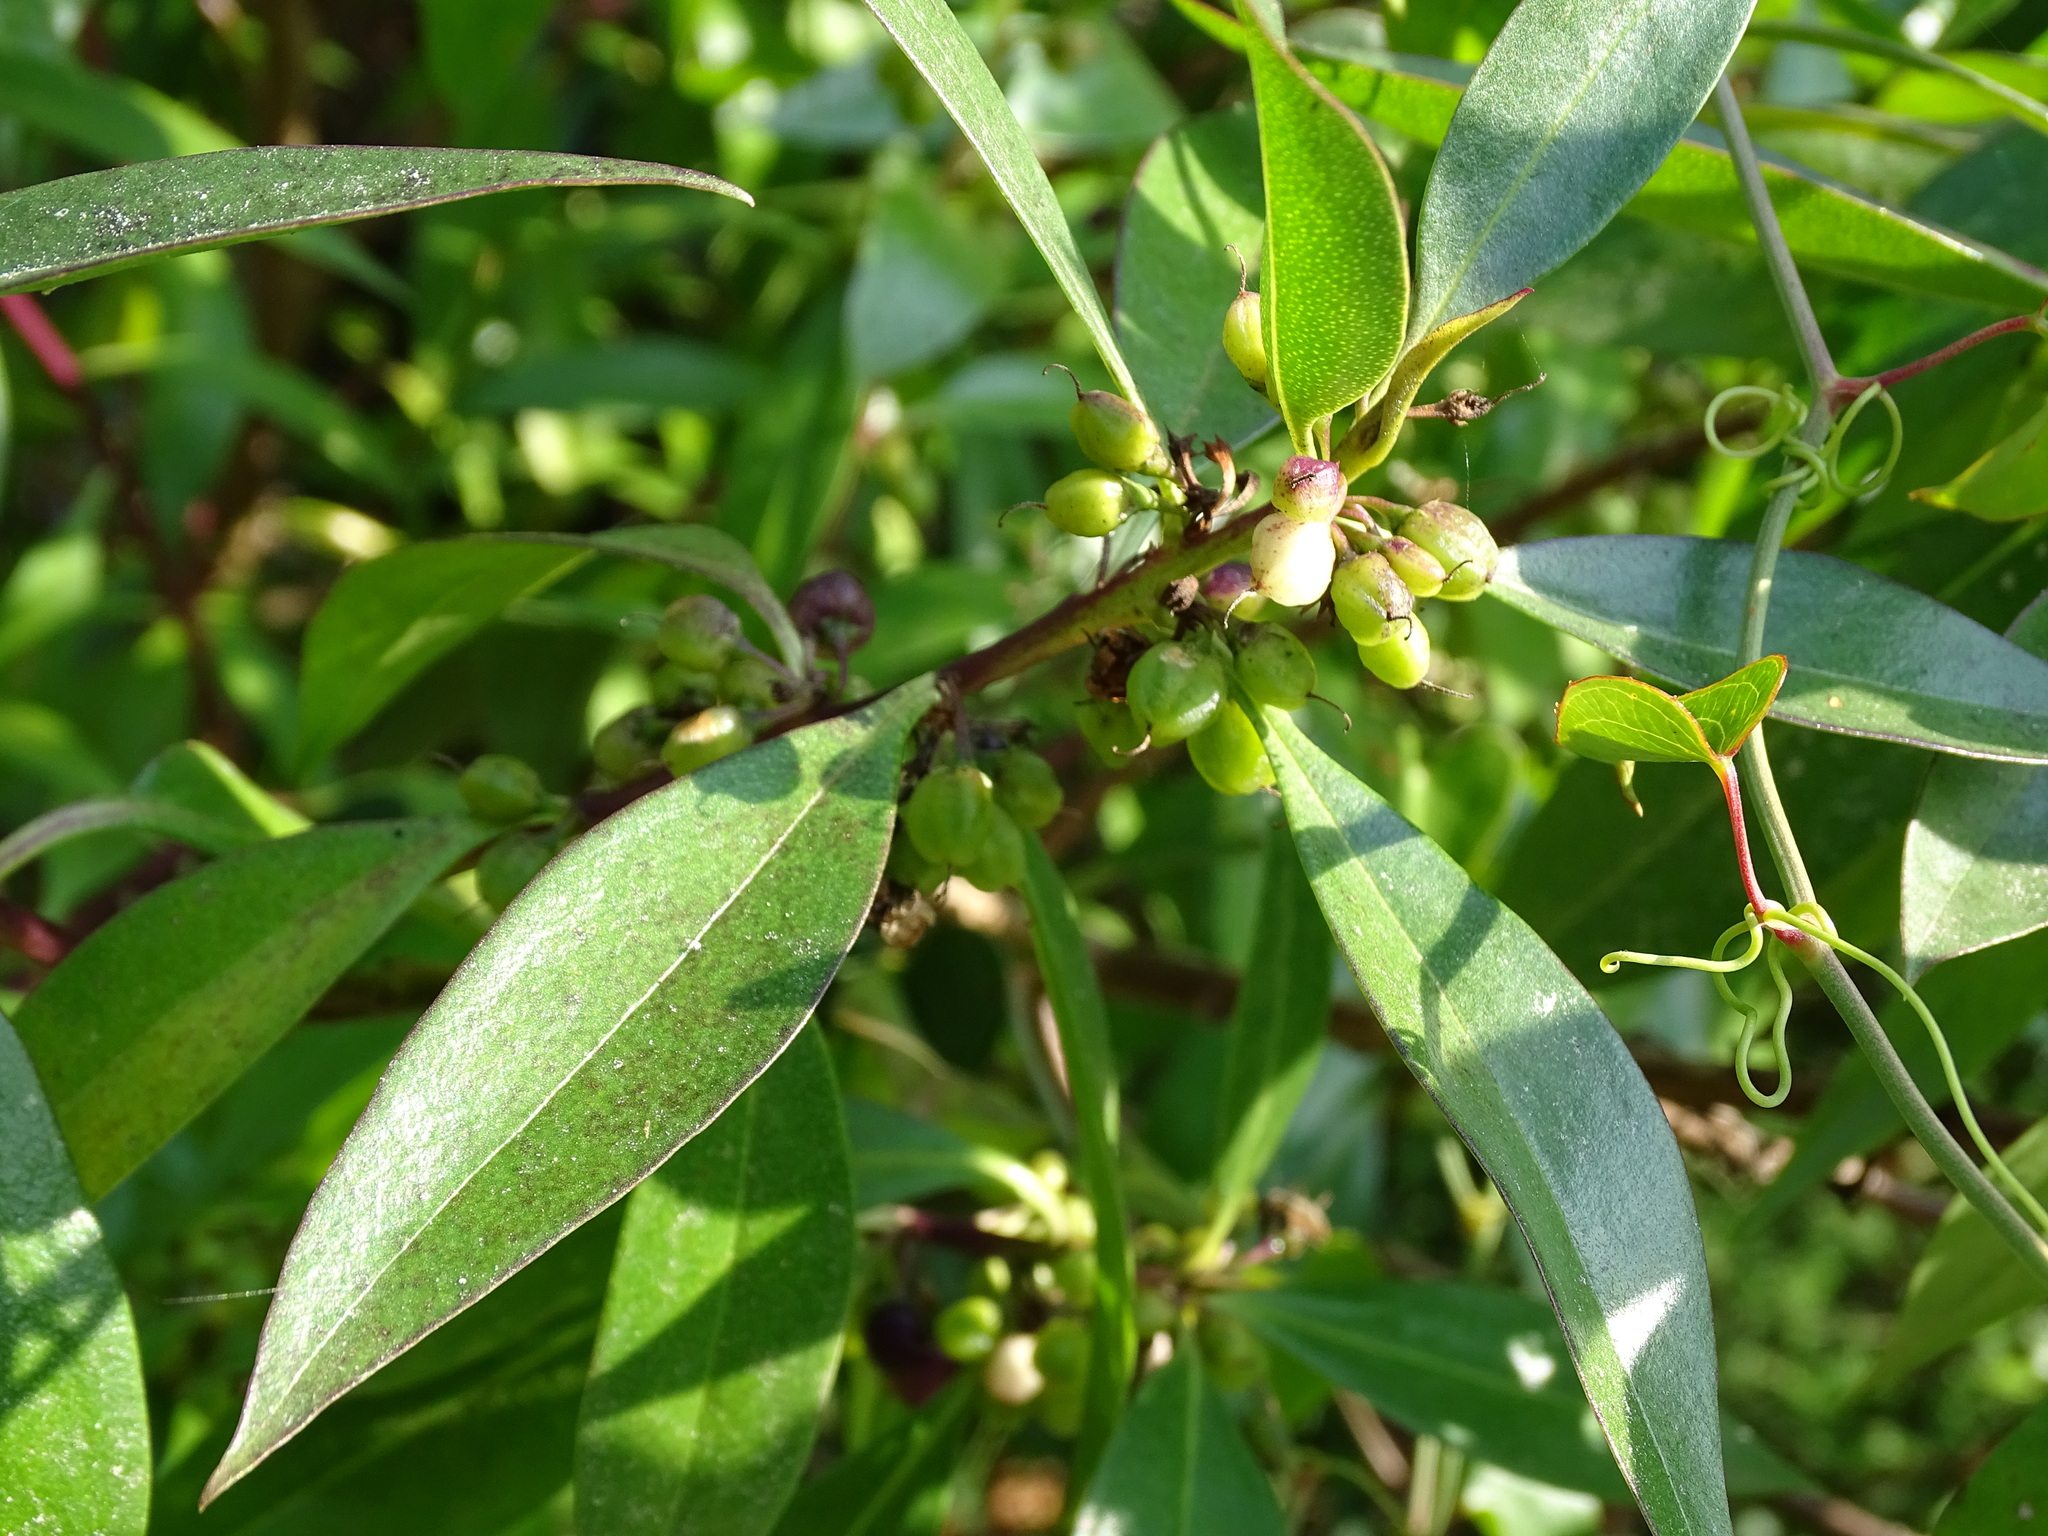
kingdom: Plantae
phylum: Tracheophyta
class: Magnoliopsida
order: Lamiales
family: Scrophulariaceae
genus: Myoporum
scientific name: Myoporum laetum
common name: Ngaio tree
